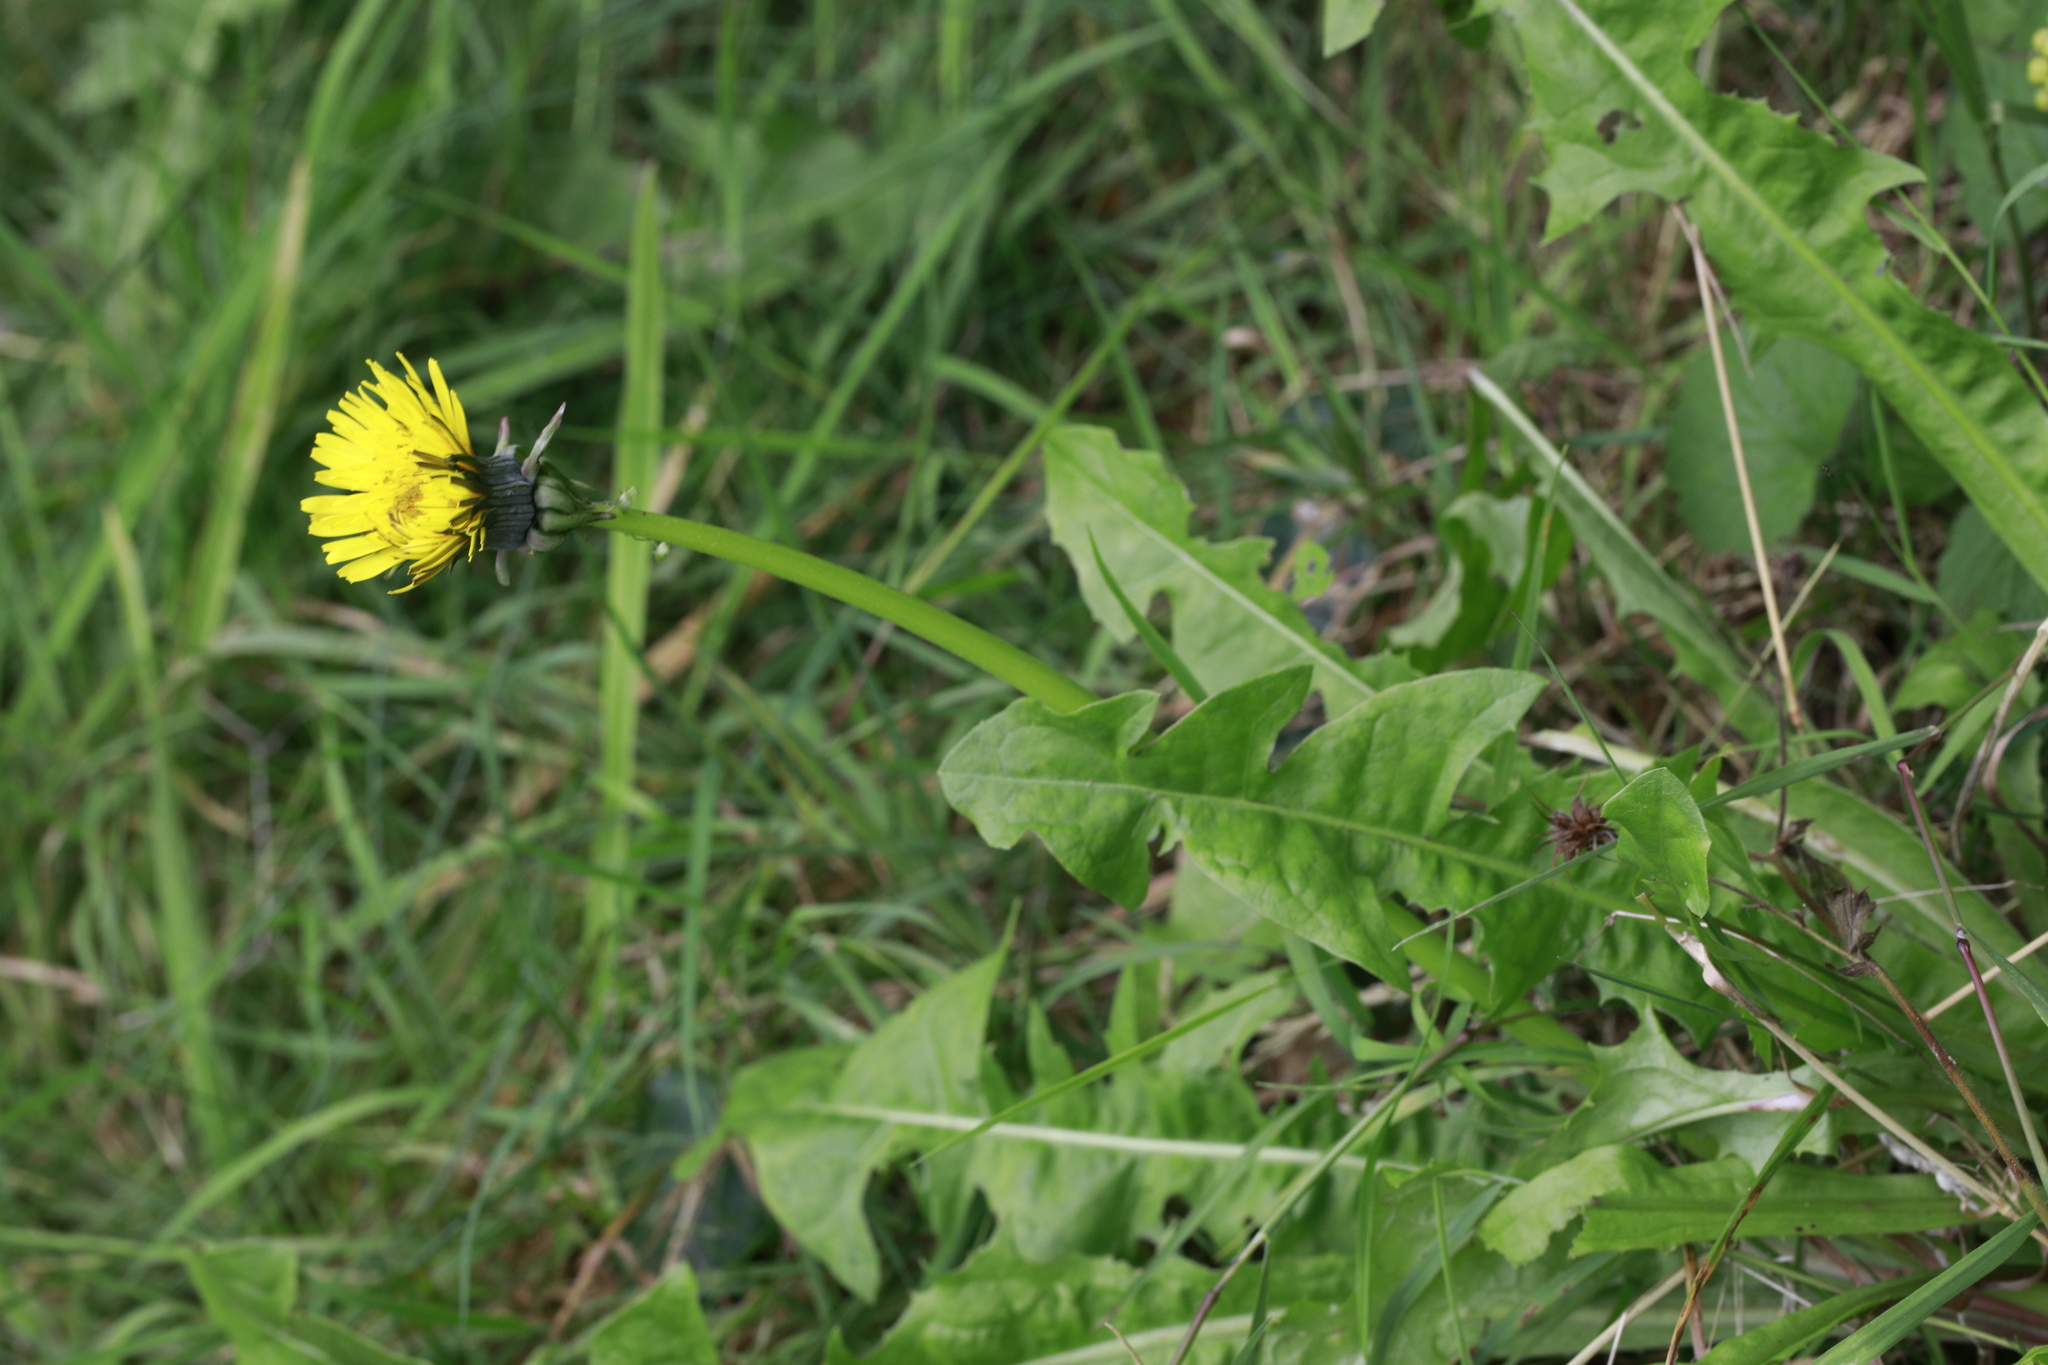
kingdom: Plantae
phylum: Tracheophyta
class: Magnoliopsida
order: Asterales
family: Asteraceae
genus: Taraxacum
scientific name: Taraxacum officinale
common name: Common dandelion
